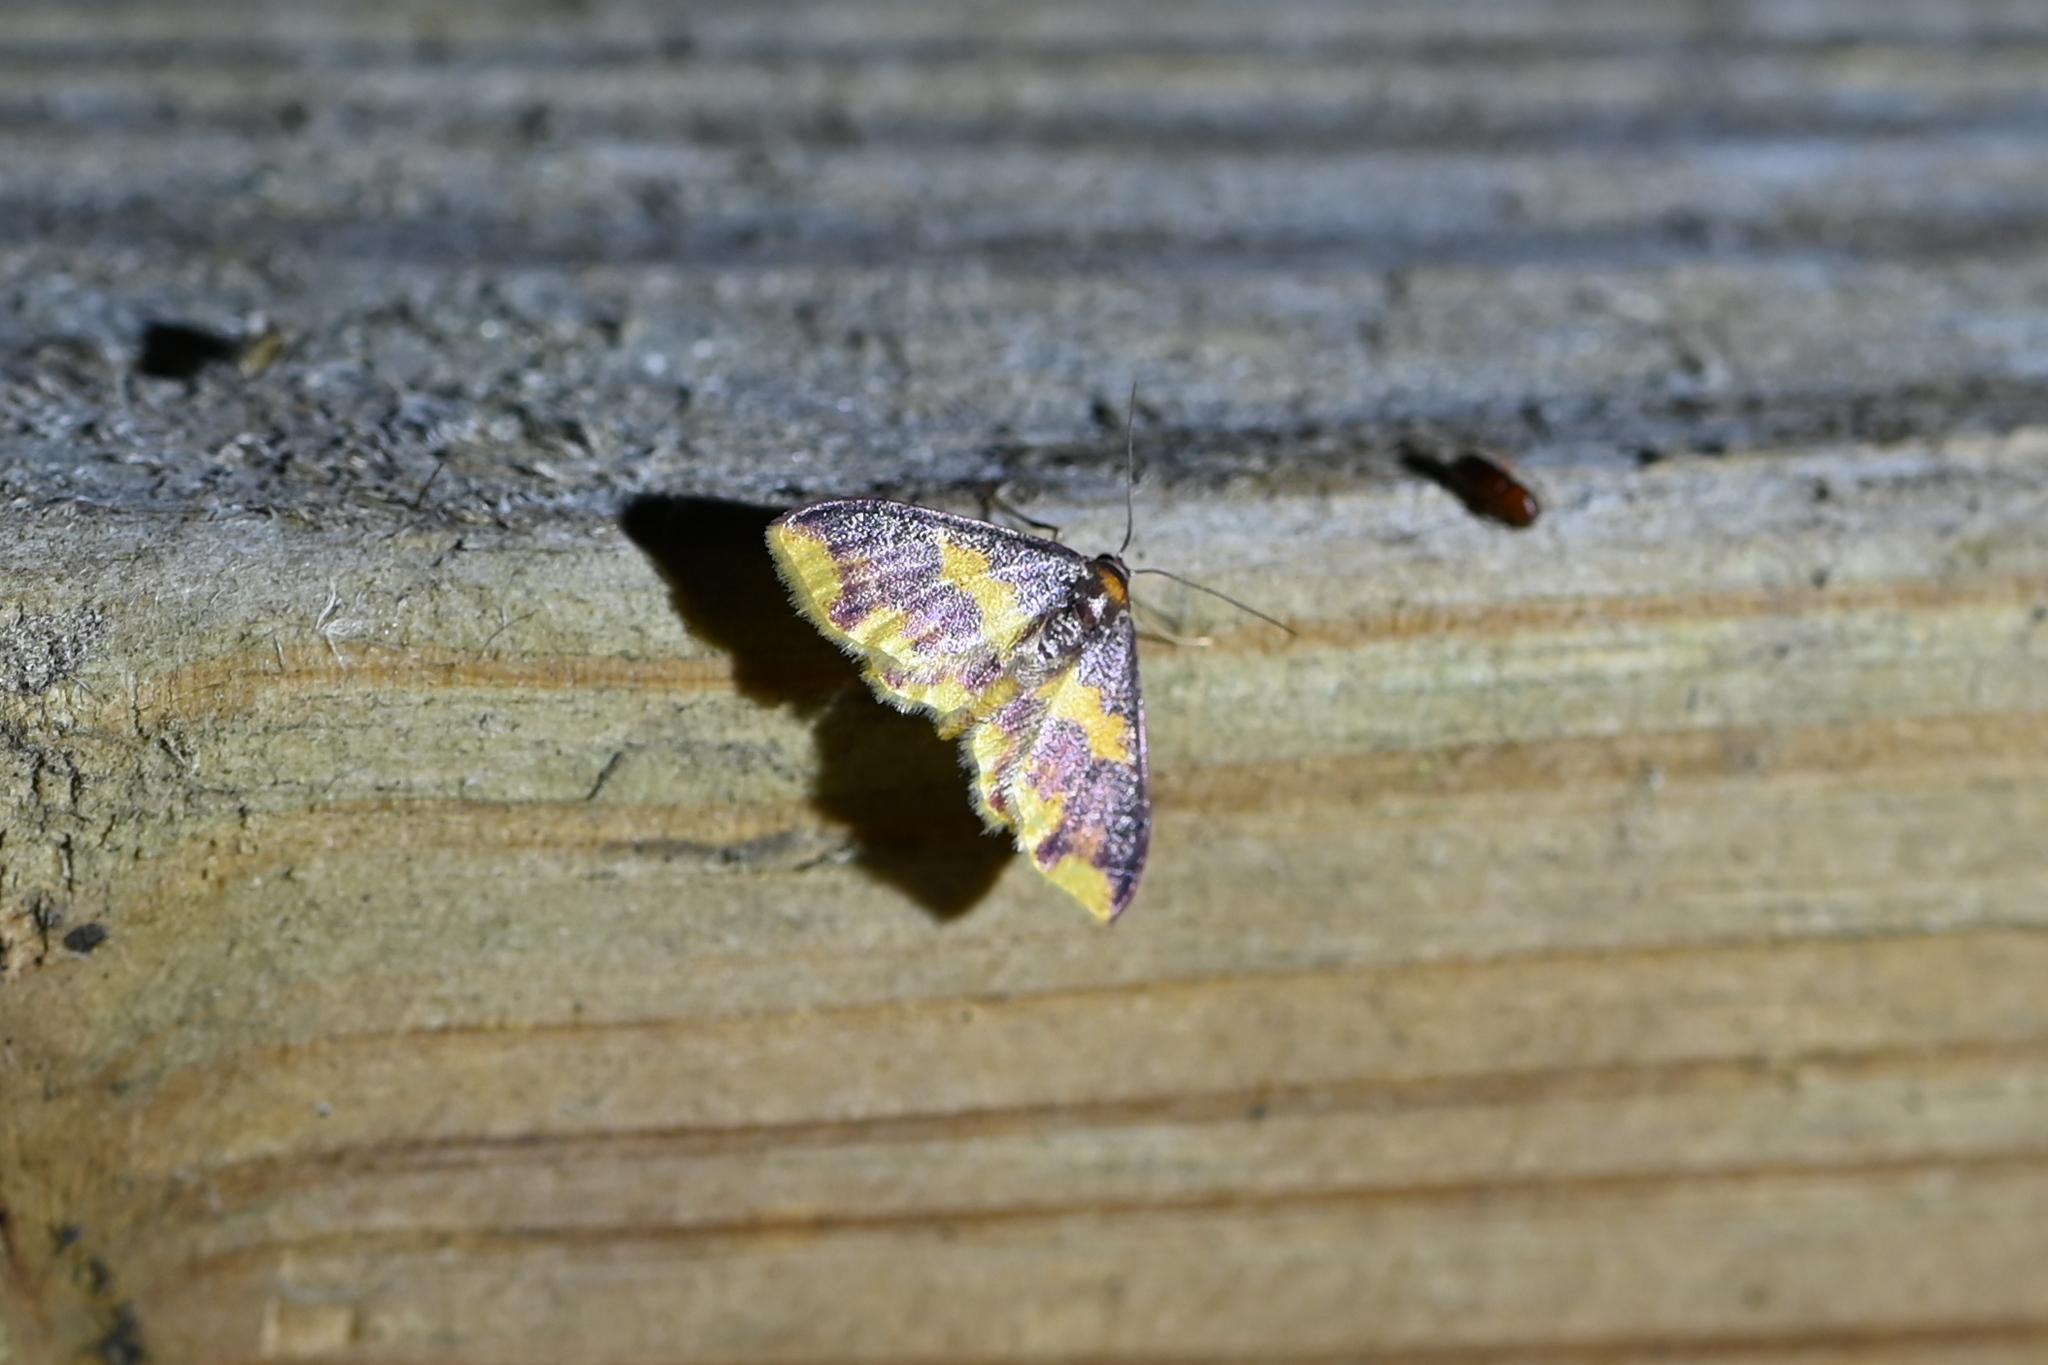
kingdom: Animalia
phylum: Arthropoda
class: Insecta
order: Lepidoptera
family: Geometridae
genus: Lophosis
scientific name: Lophosis labeculata
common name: Stained lophosis moth
